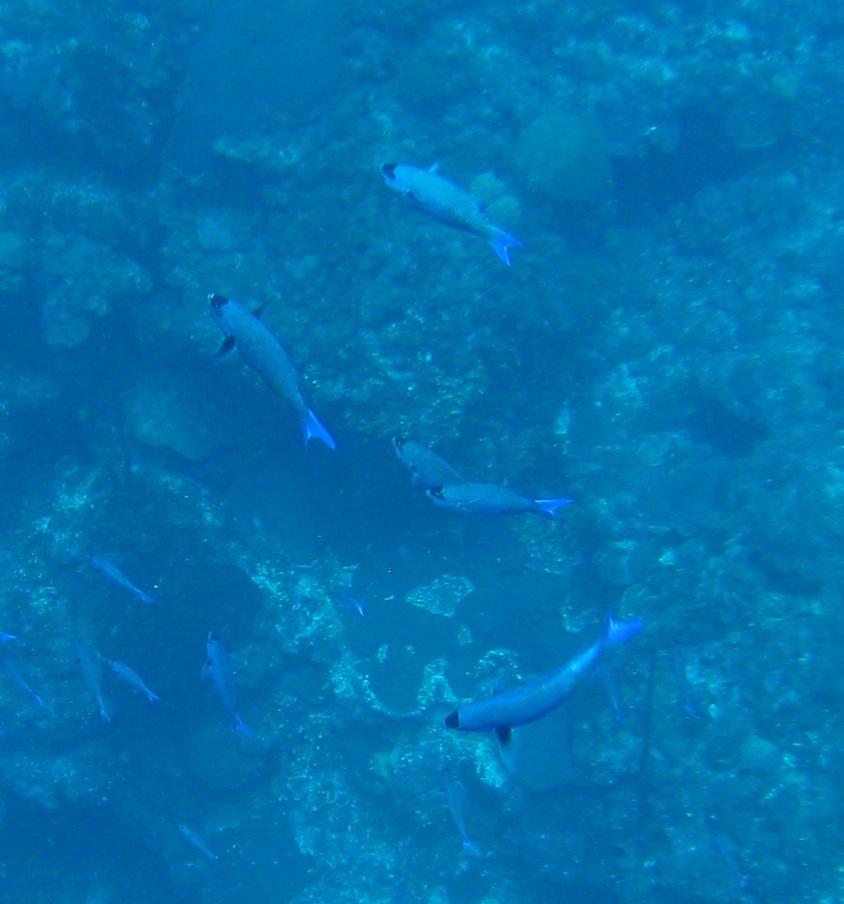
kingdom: Animalia
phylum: Chordata
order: Perciformes
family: Labridae
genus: Bodianus
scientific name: Bodianus
